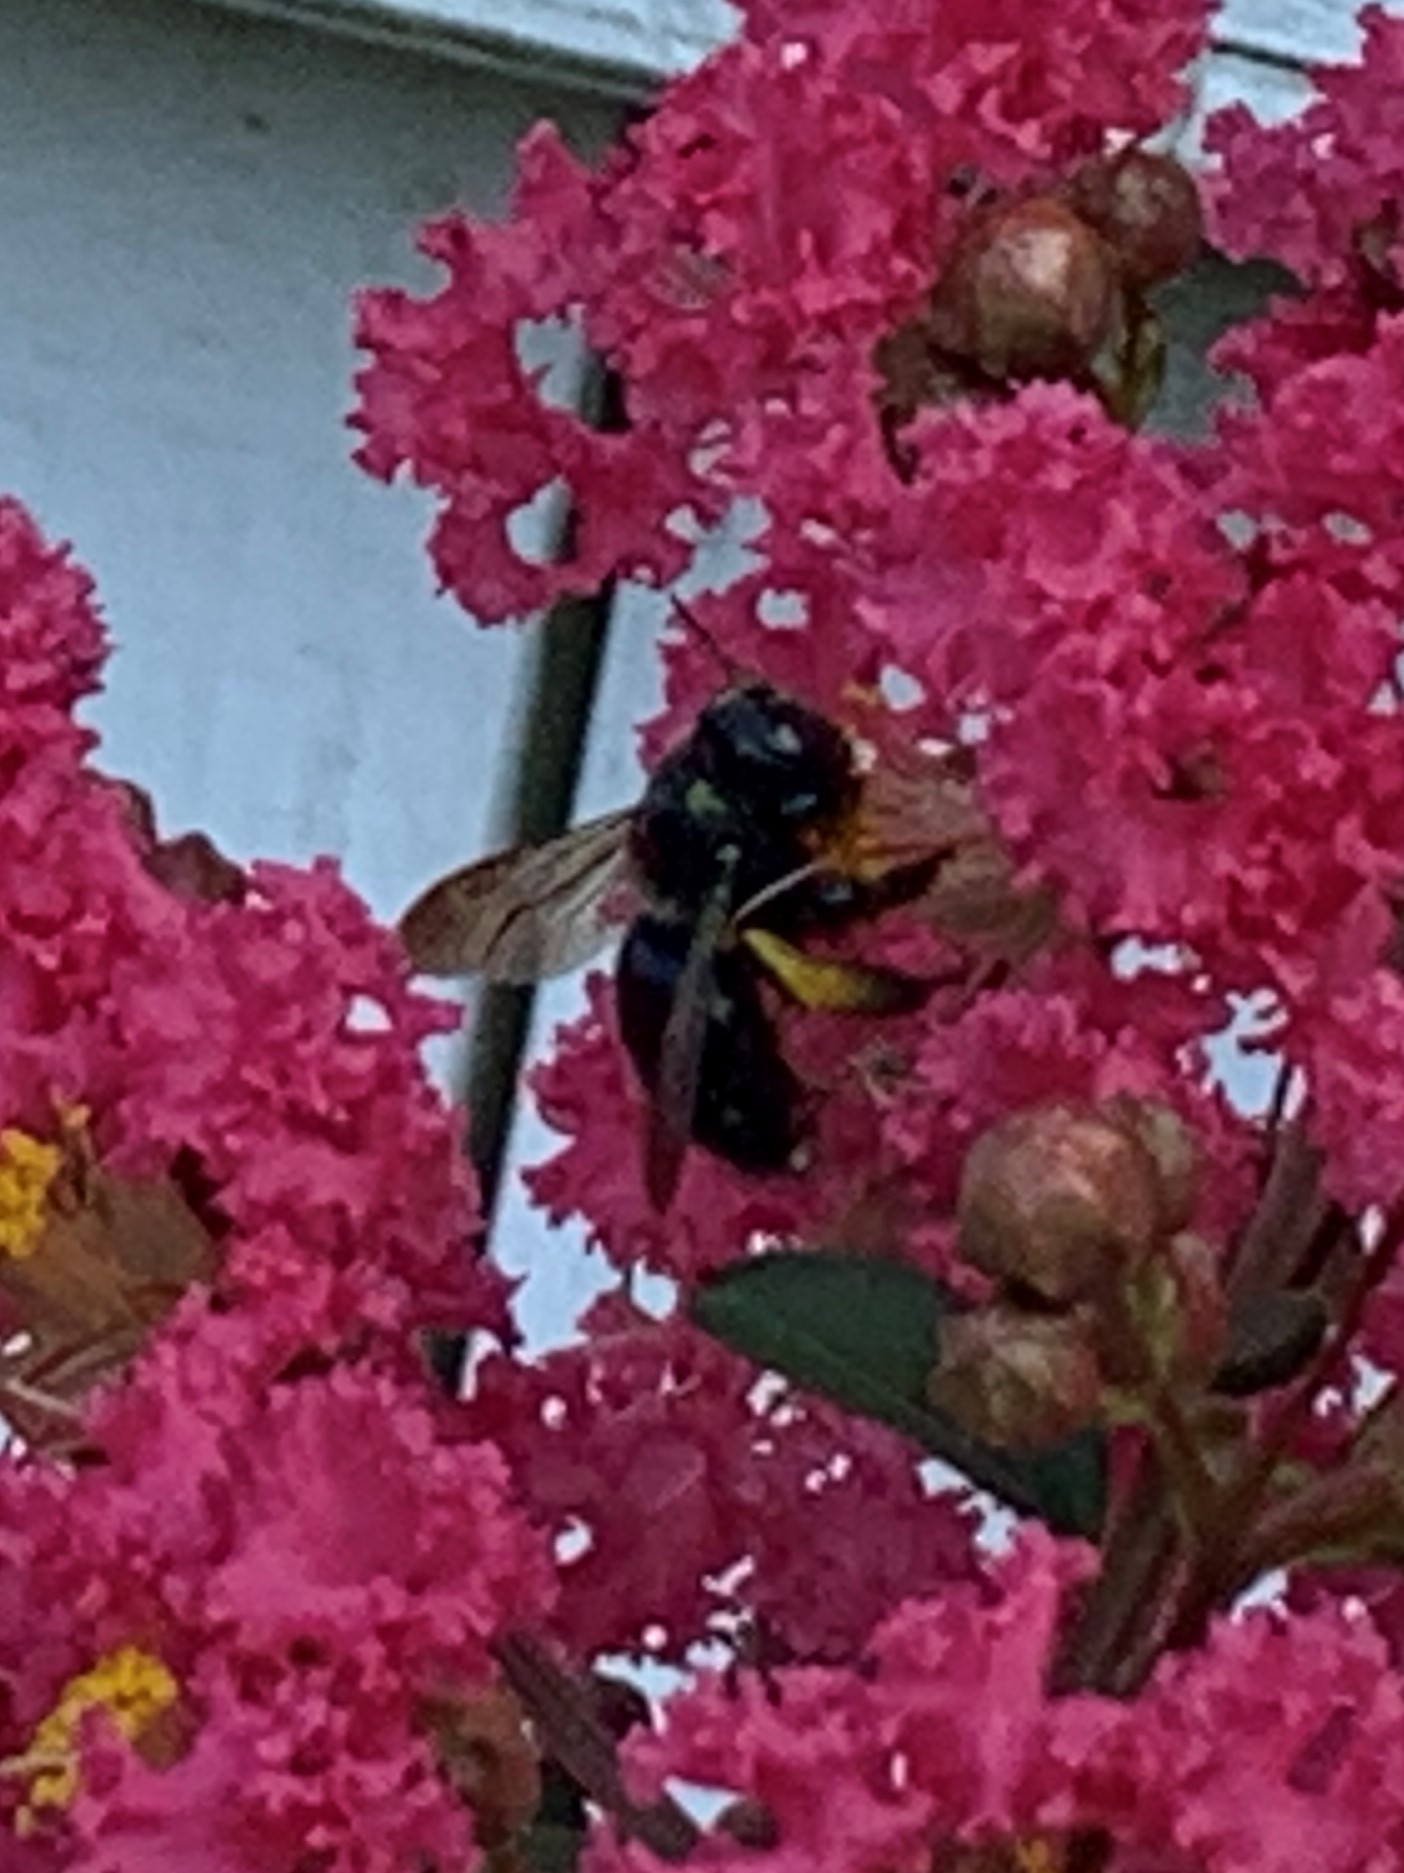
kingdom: Animalia
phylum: Arthropoda
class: Insecta
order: Hymenoptera
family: Apidae
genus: Xylocopa
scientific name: Xylocopa micans
